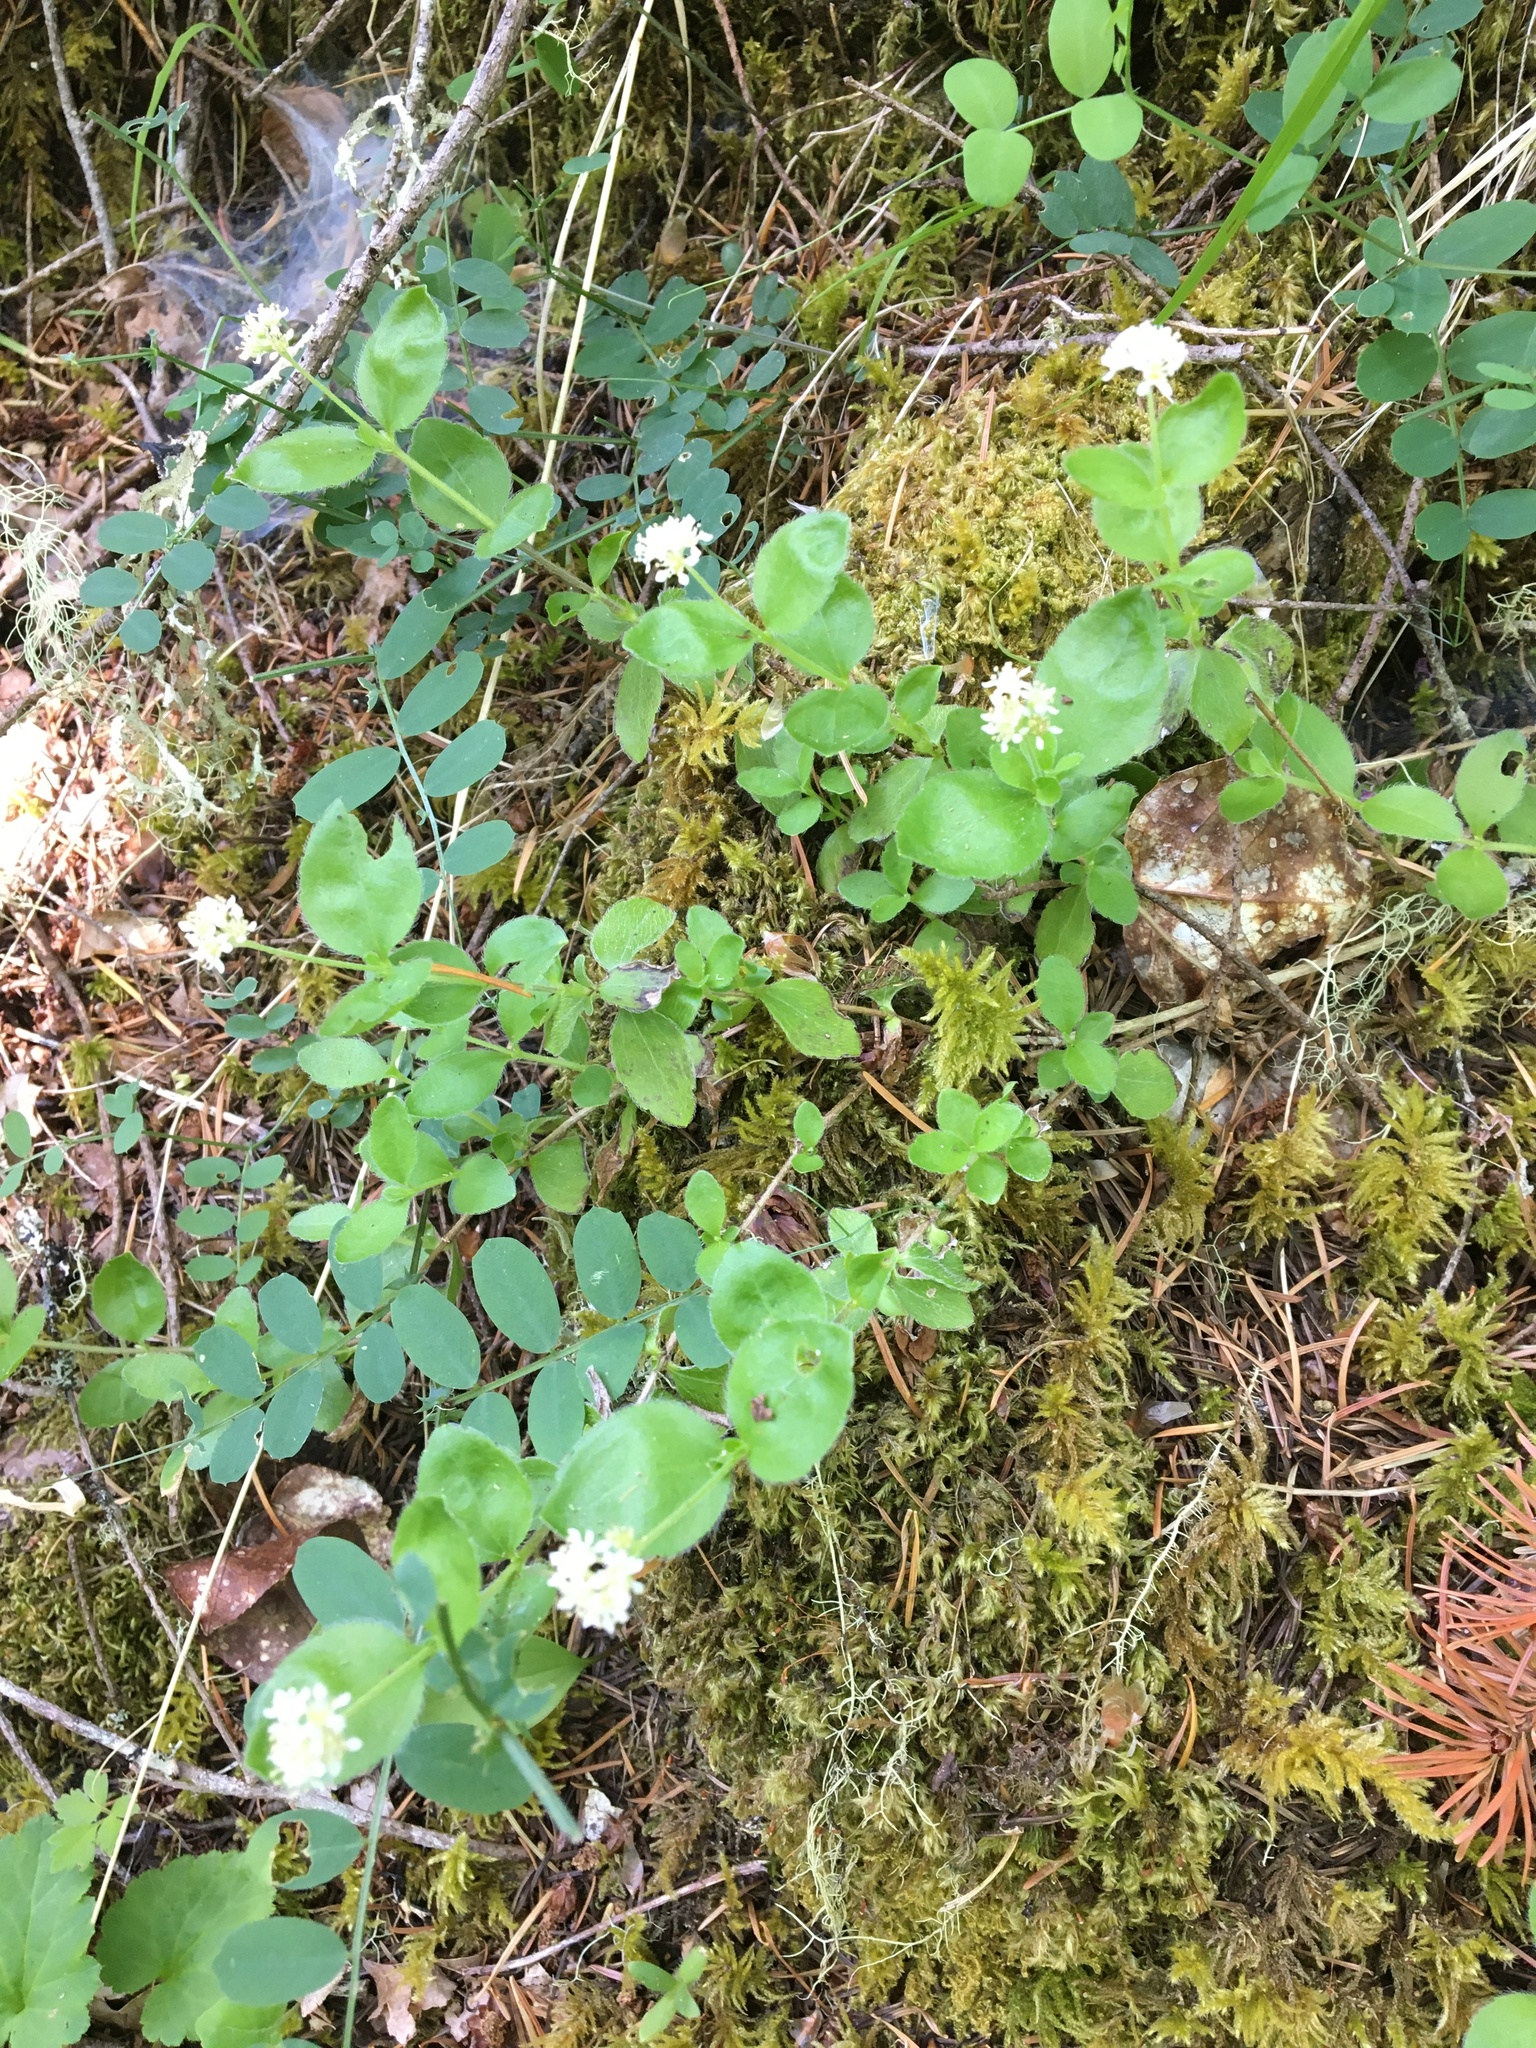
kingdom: Plantae
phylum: Tracheophyta
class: Magnoliopsida
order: Cornales
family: Hydrangeaceae
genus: Whipplea
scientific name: Whipplea modesta
